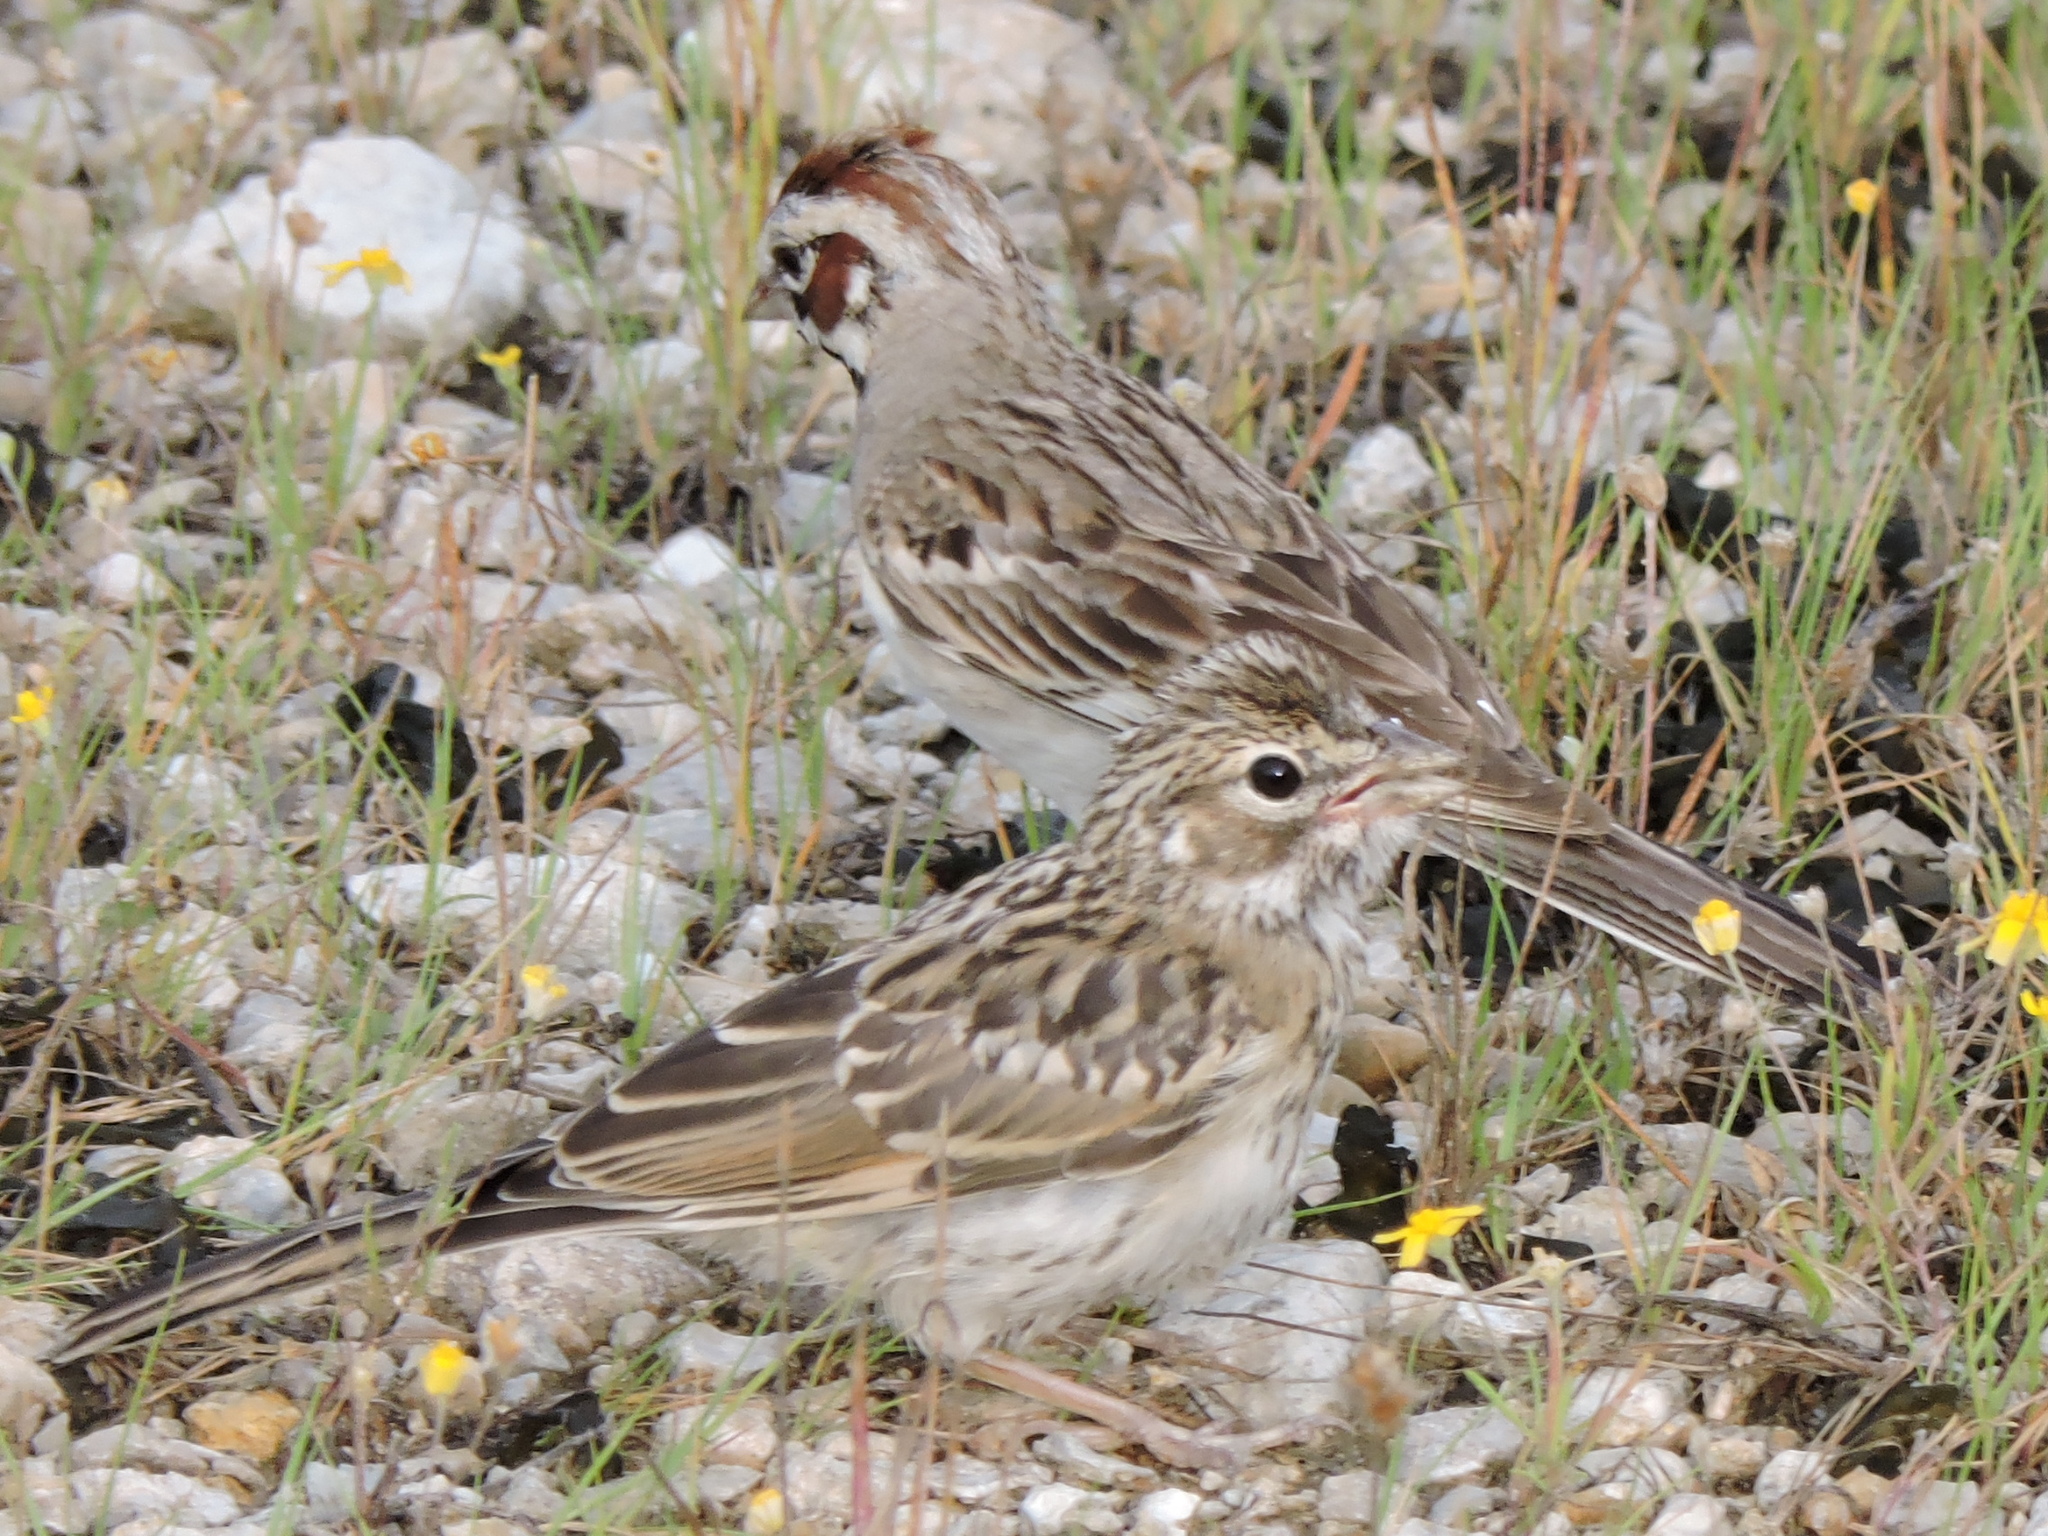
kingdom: Animalia
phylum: Chordata
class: Aves
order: Passeriformes
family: Passerellidae
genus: Chondestes
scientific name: Chondestes grammacus
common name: Lark sparrow
